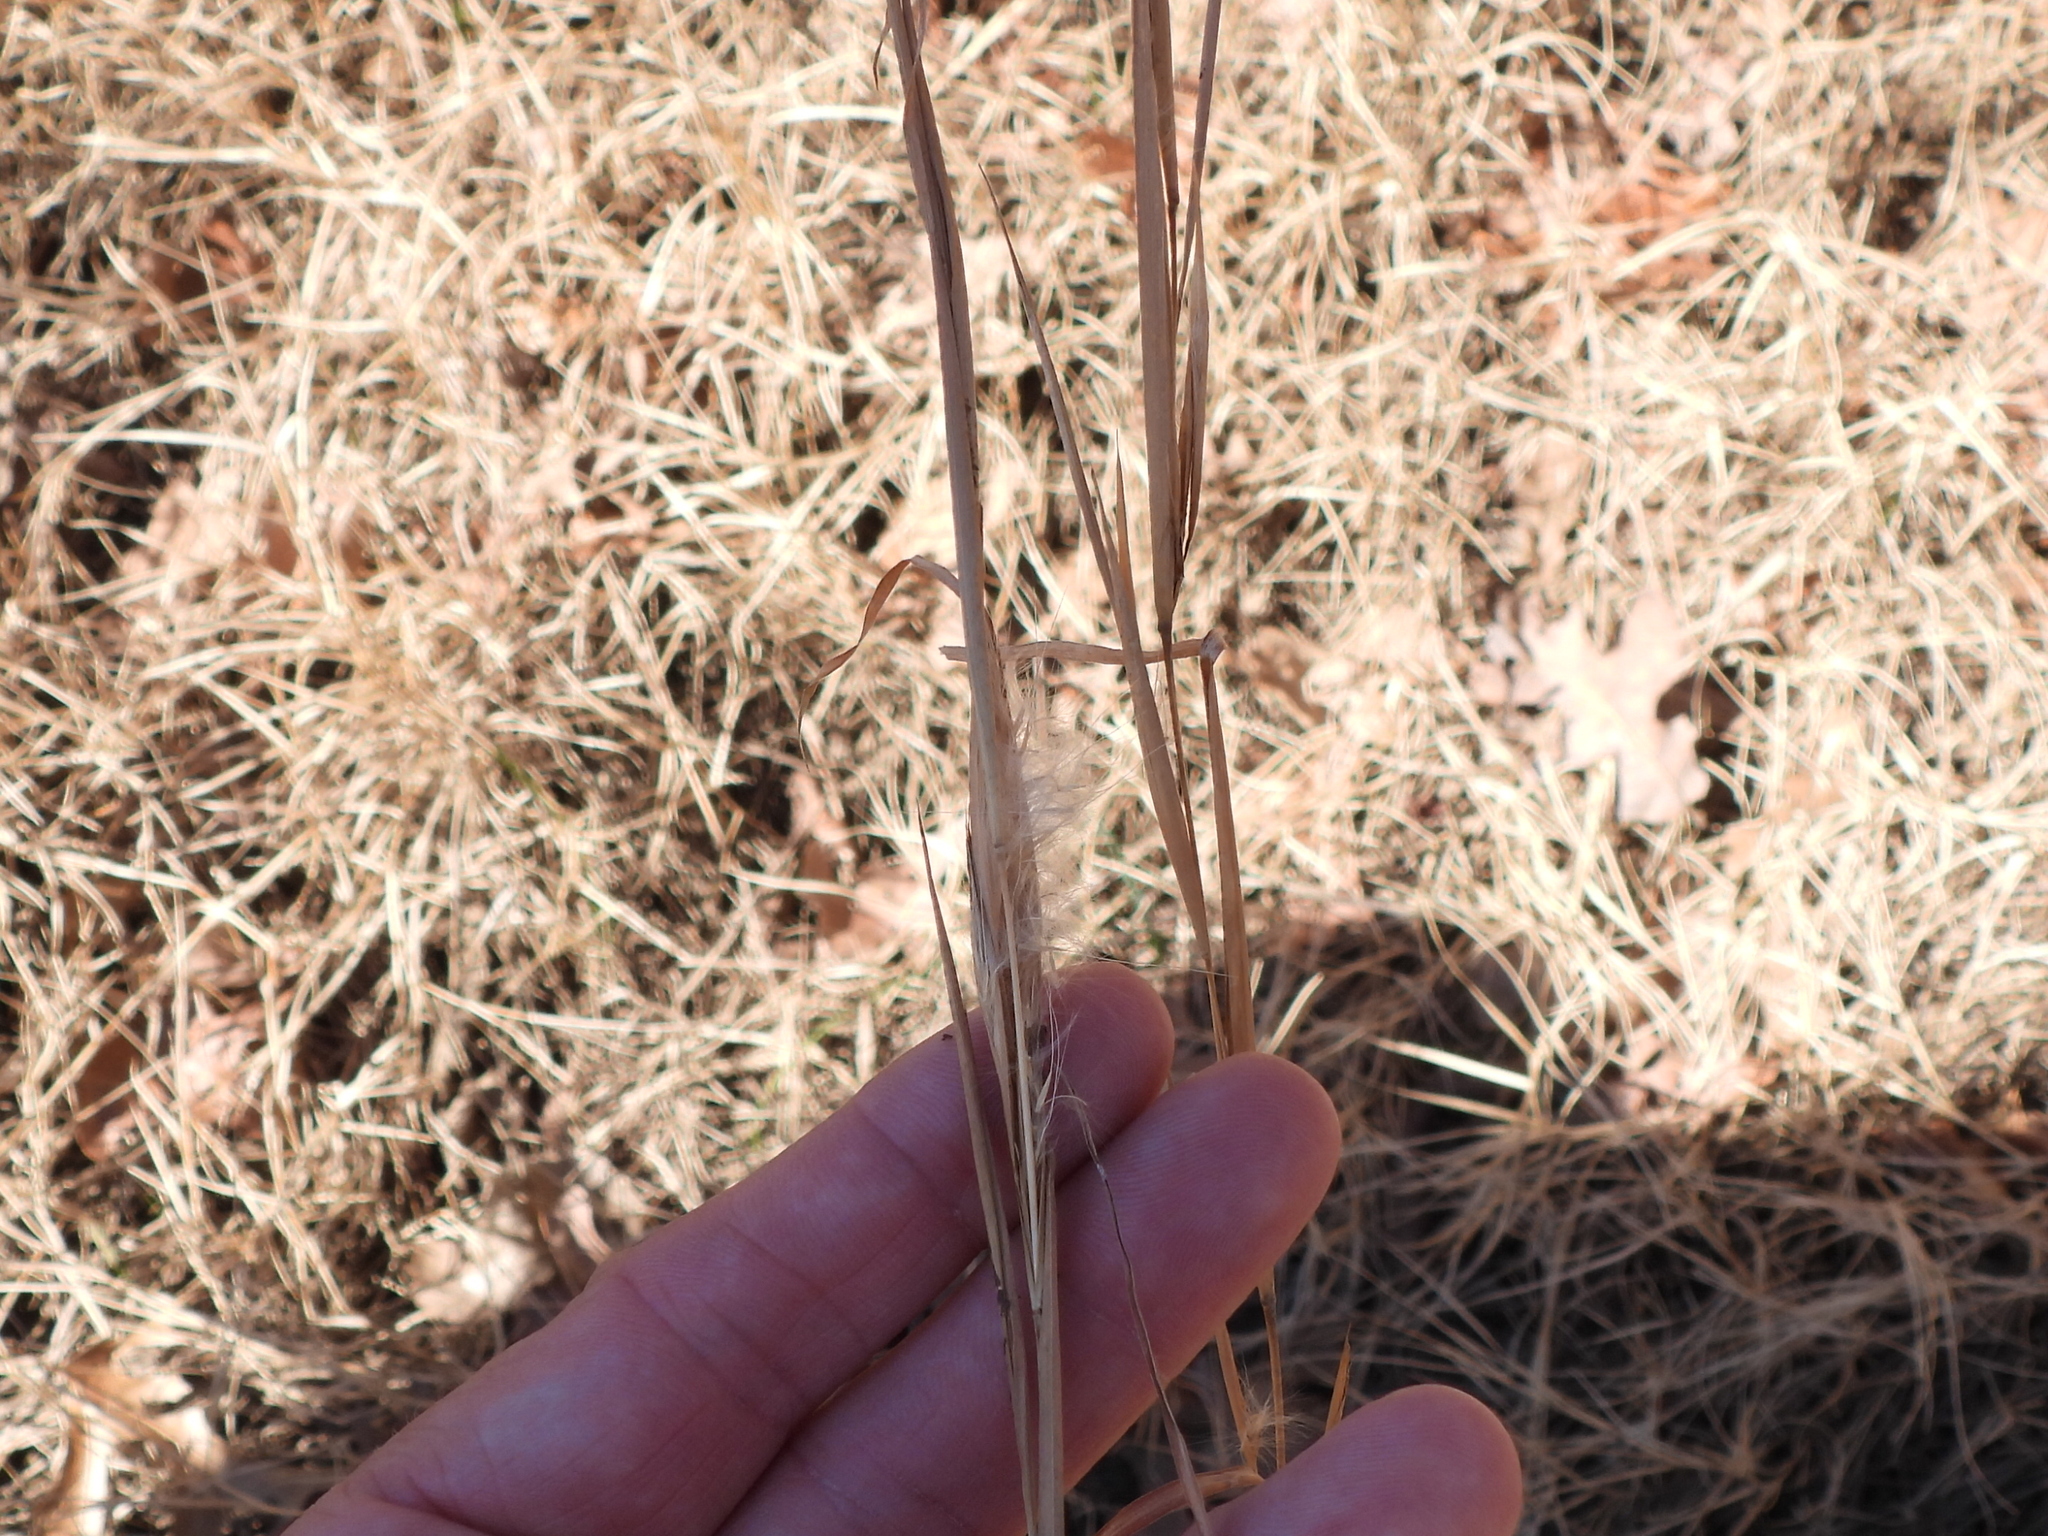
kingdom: Plantae
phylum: Tracheophyta
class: Liliopsida
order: Poales
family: Poaceae
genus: Andropogon
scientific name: Andropogon virginicus
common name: Broomsedge bluestem
